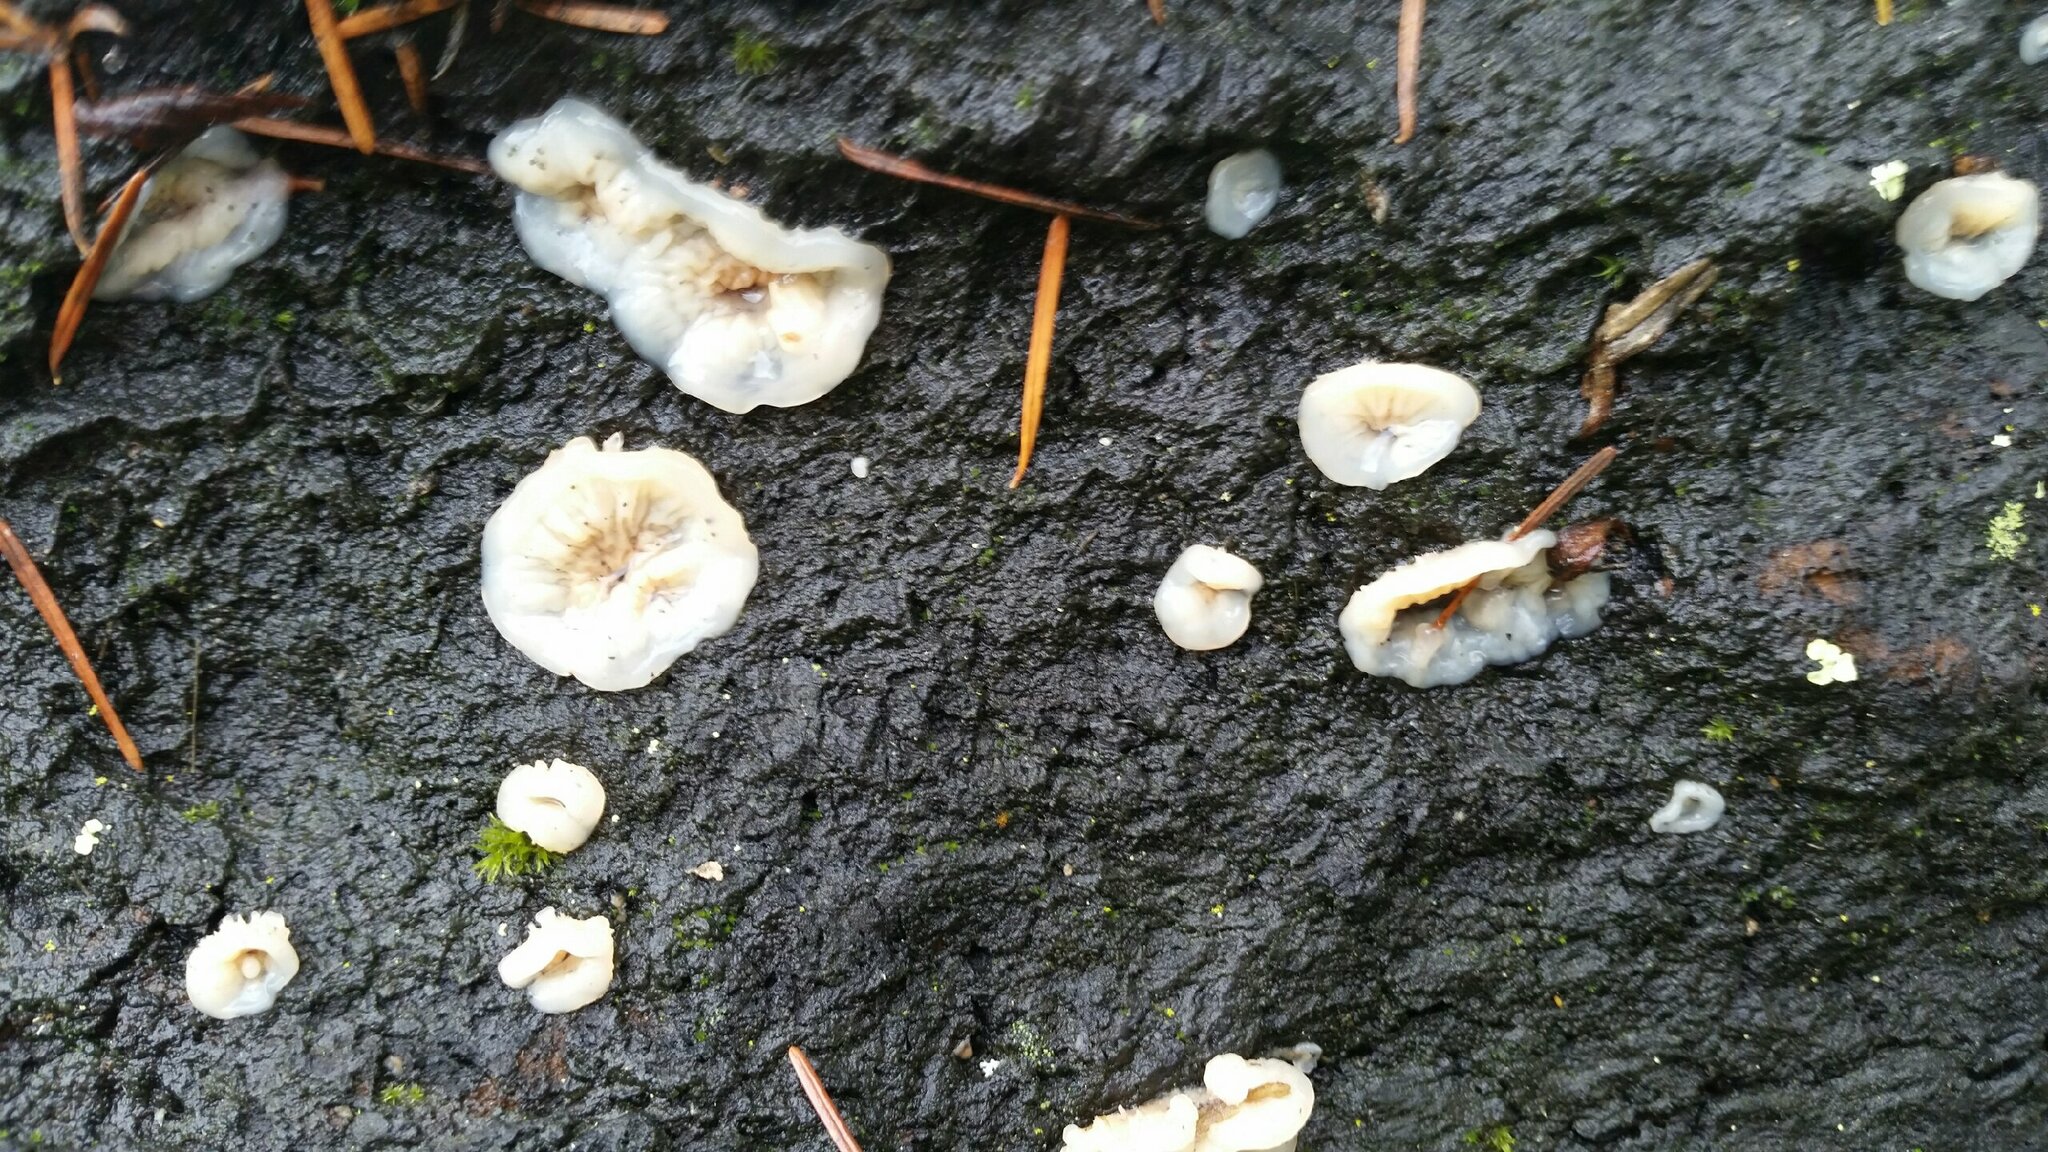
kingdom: Fungi
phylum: Basidiomycota
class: Agaricomycetes
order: Polyporales
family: Meruliaceae
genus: Phlebia
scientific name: Phlebia tremellosa
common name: Jelly rot
